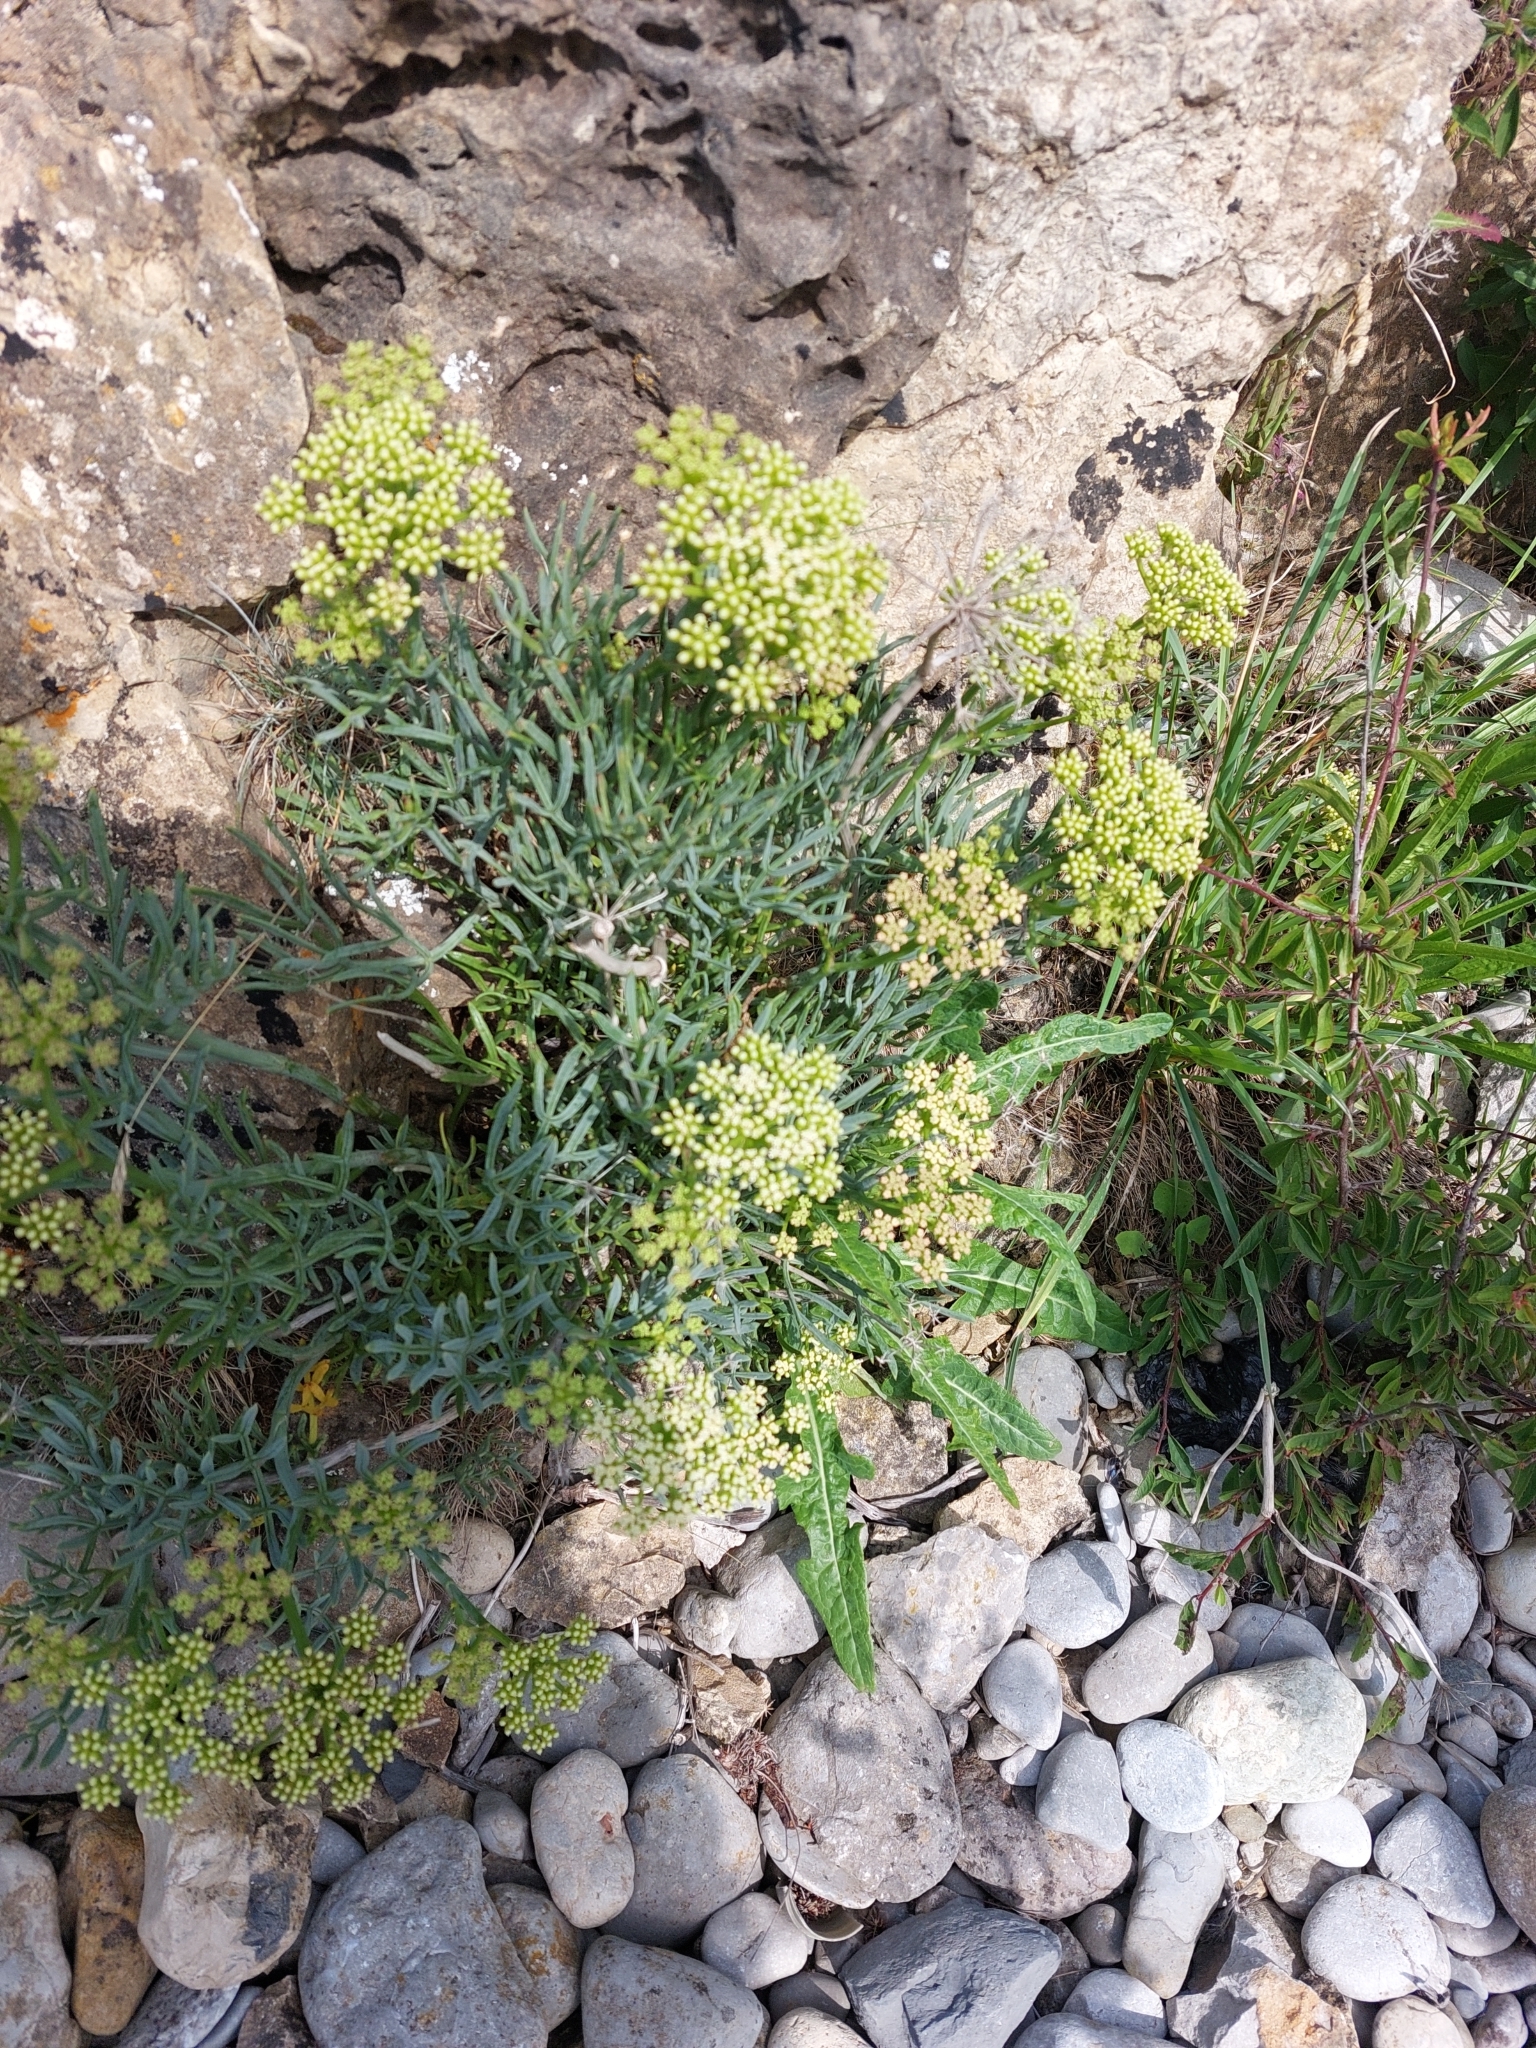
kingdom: Plantae
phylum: Tracheophyta
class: Magnoliopsida
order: Apiales
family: Apiaceae
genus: Crithmum
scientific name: Crithmum maritimum
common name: Rock samphire
